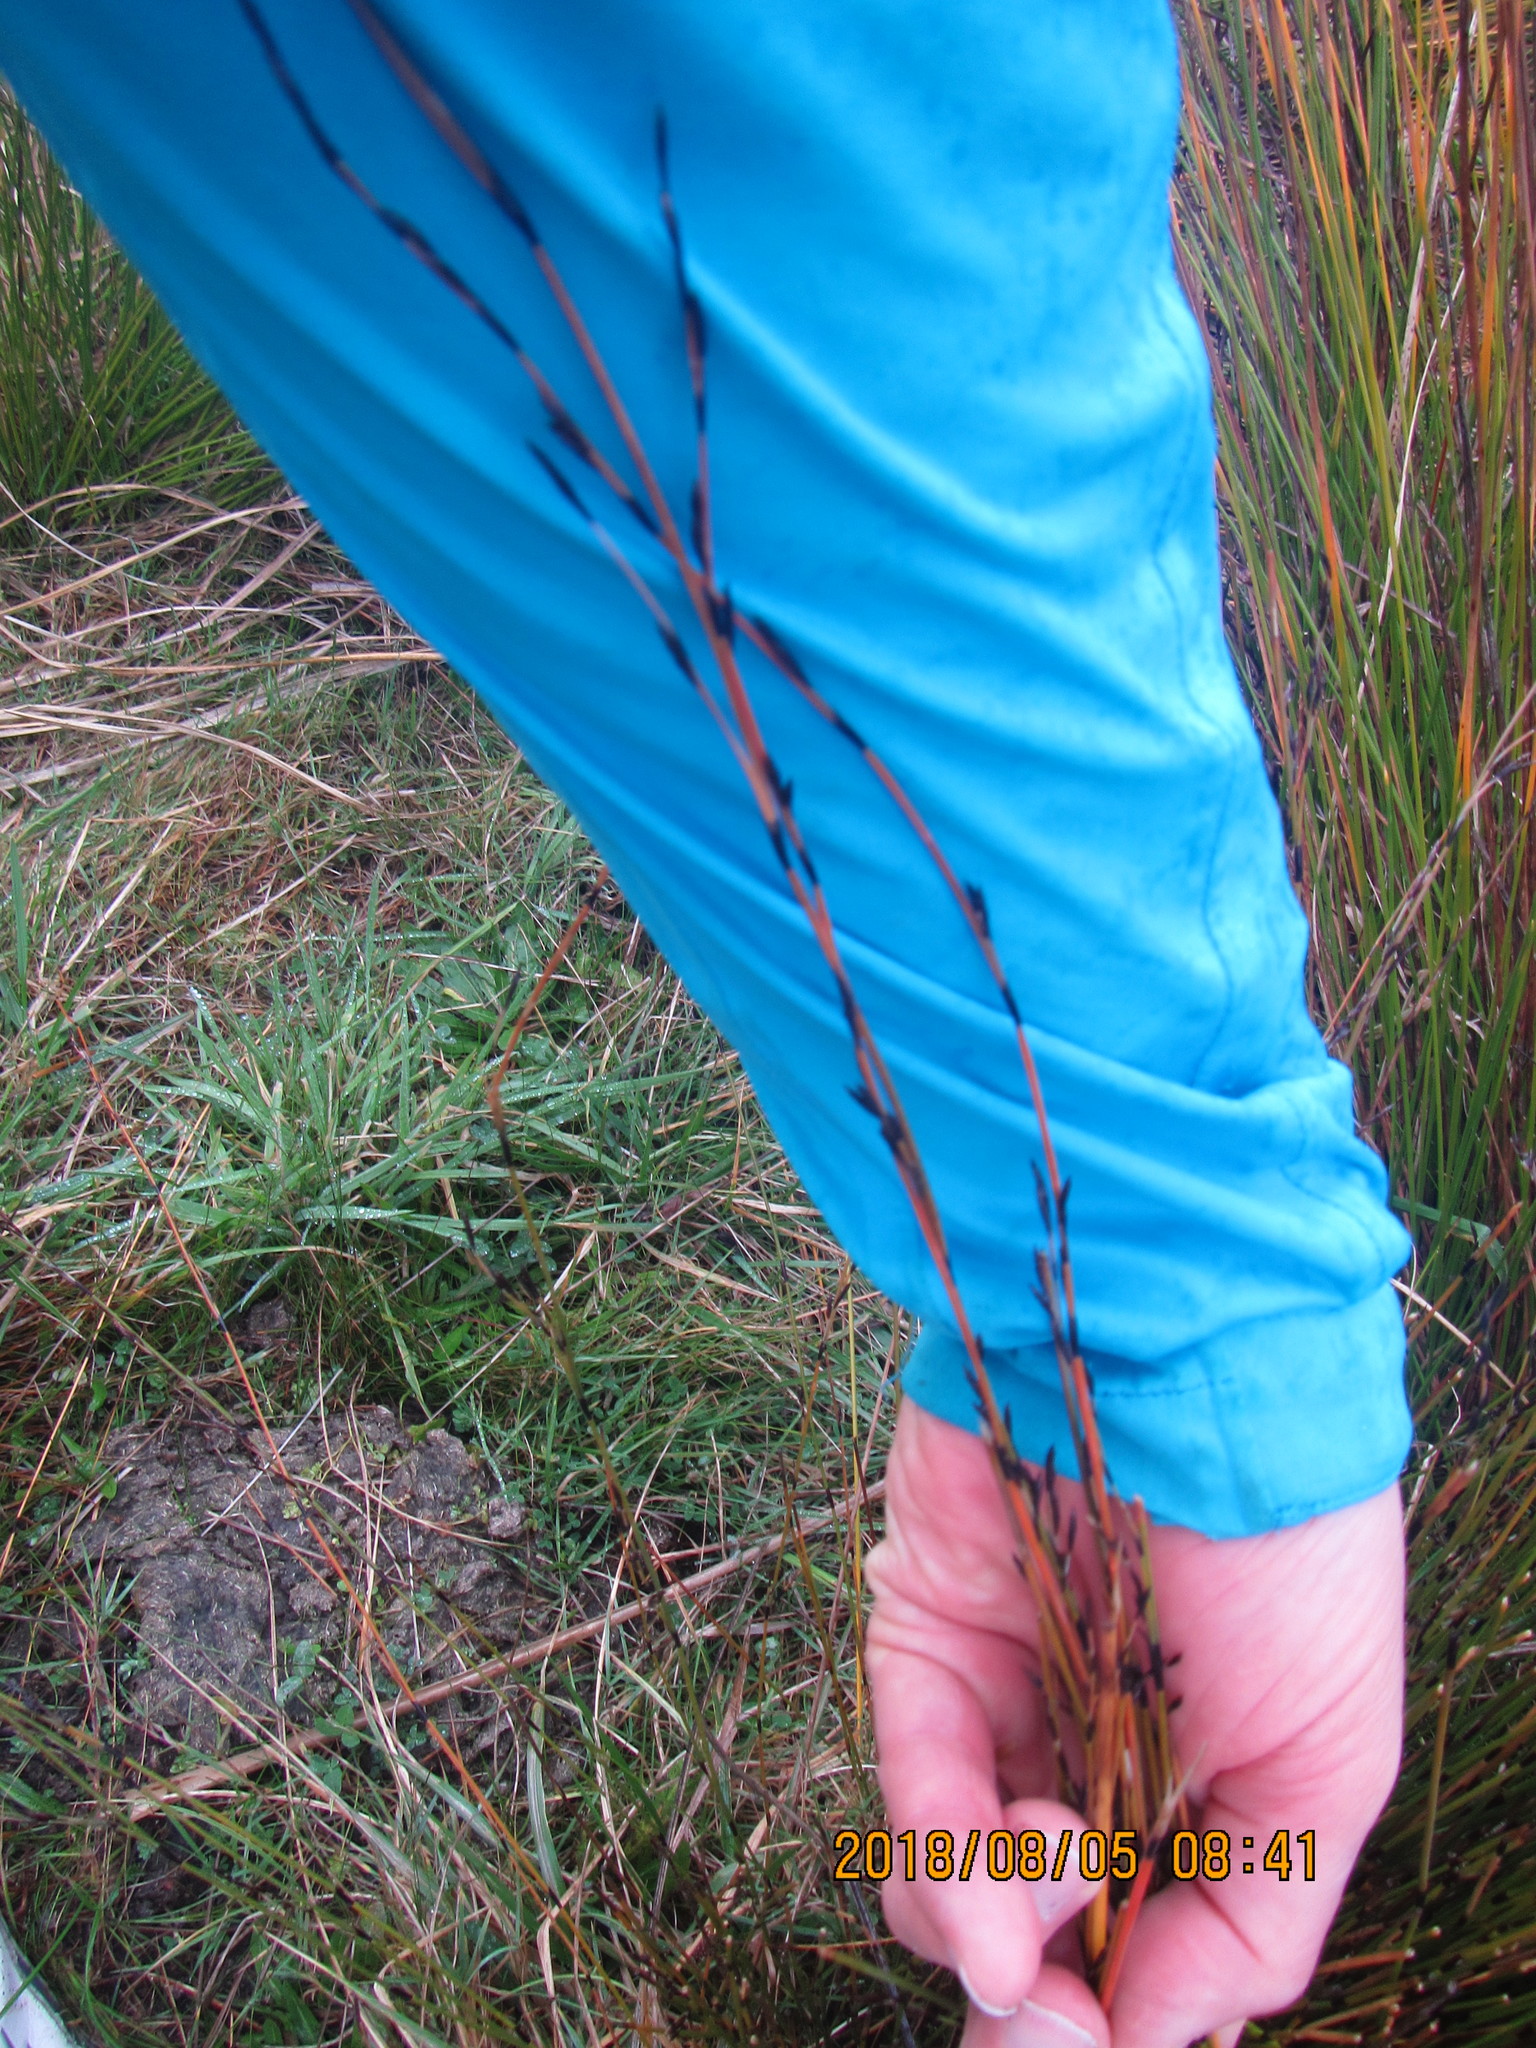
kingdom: Plantae
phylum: Tracheophyta
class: Liliopsida
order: Poales
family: Restionaceae
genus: Apodasmia
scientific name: Apodasmia similis
